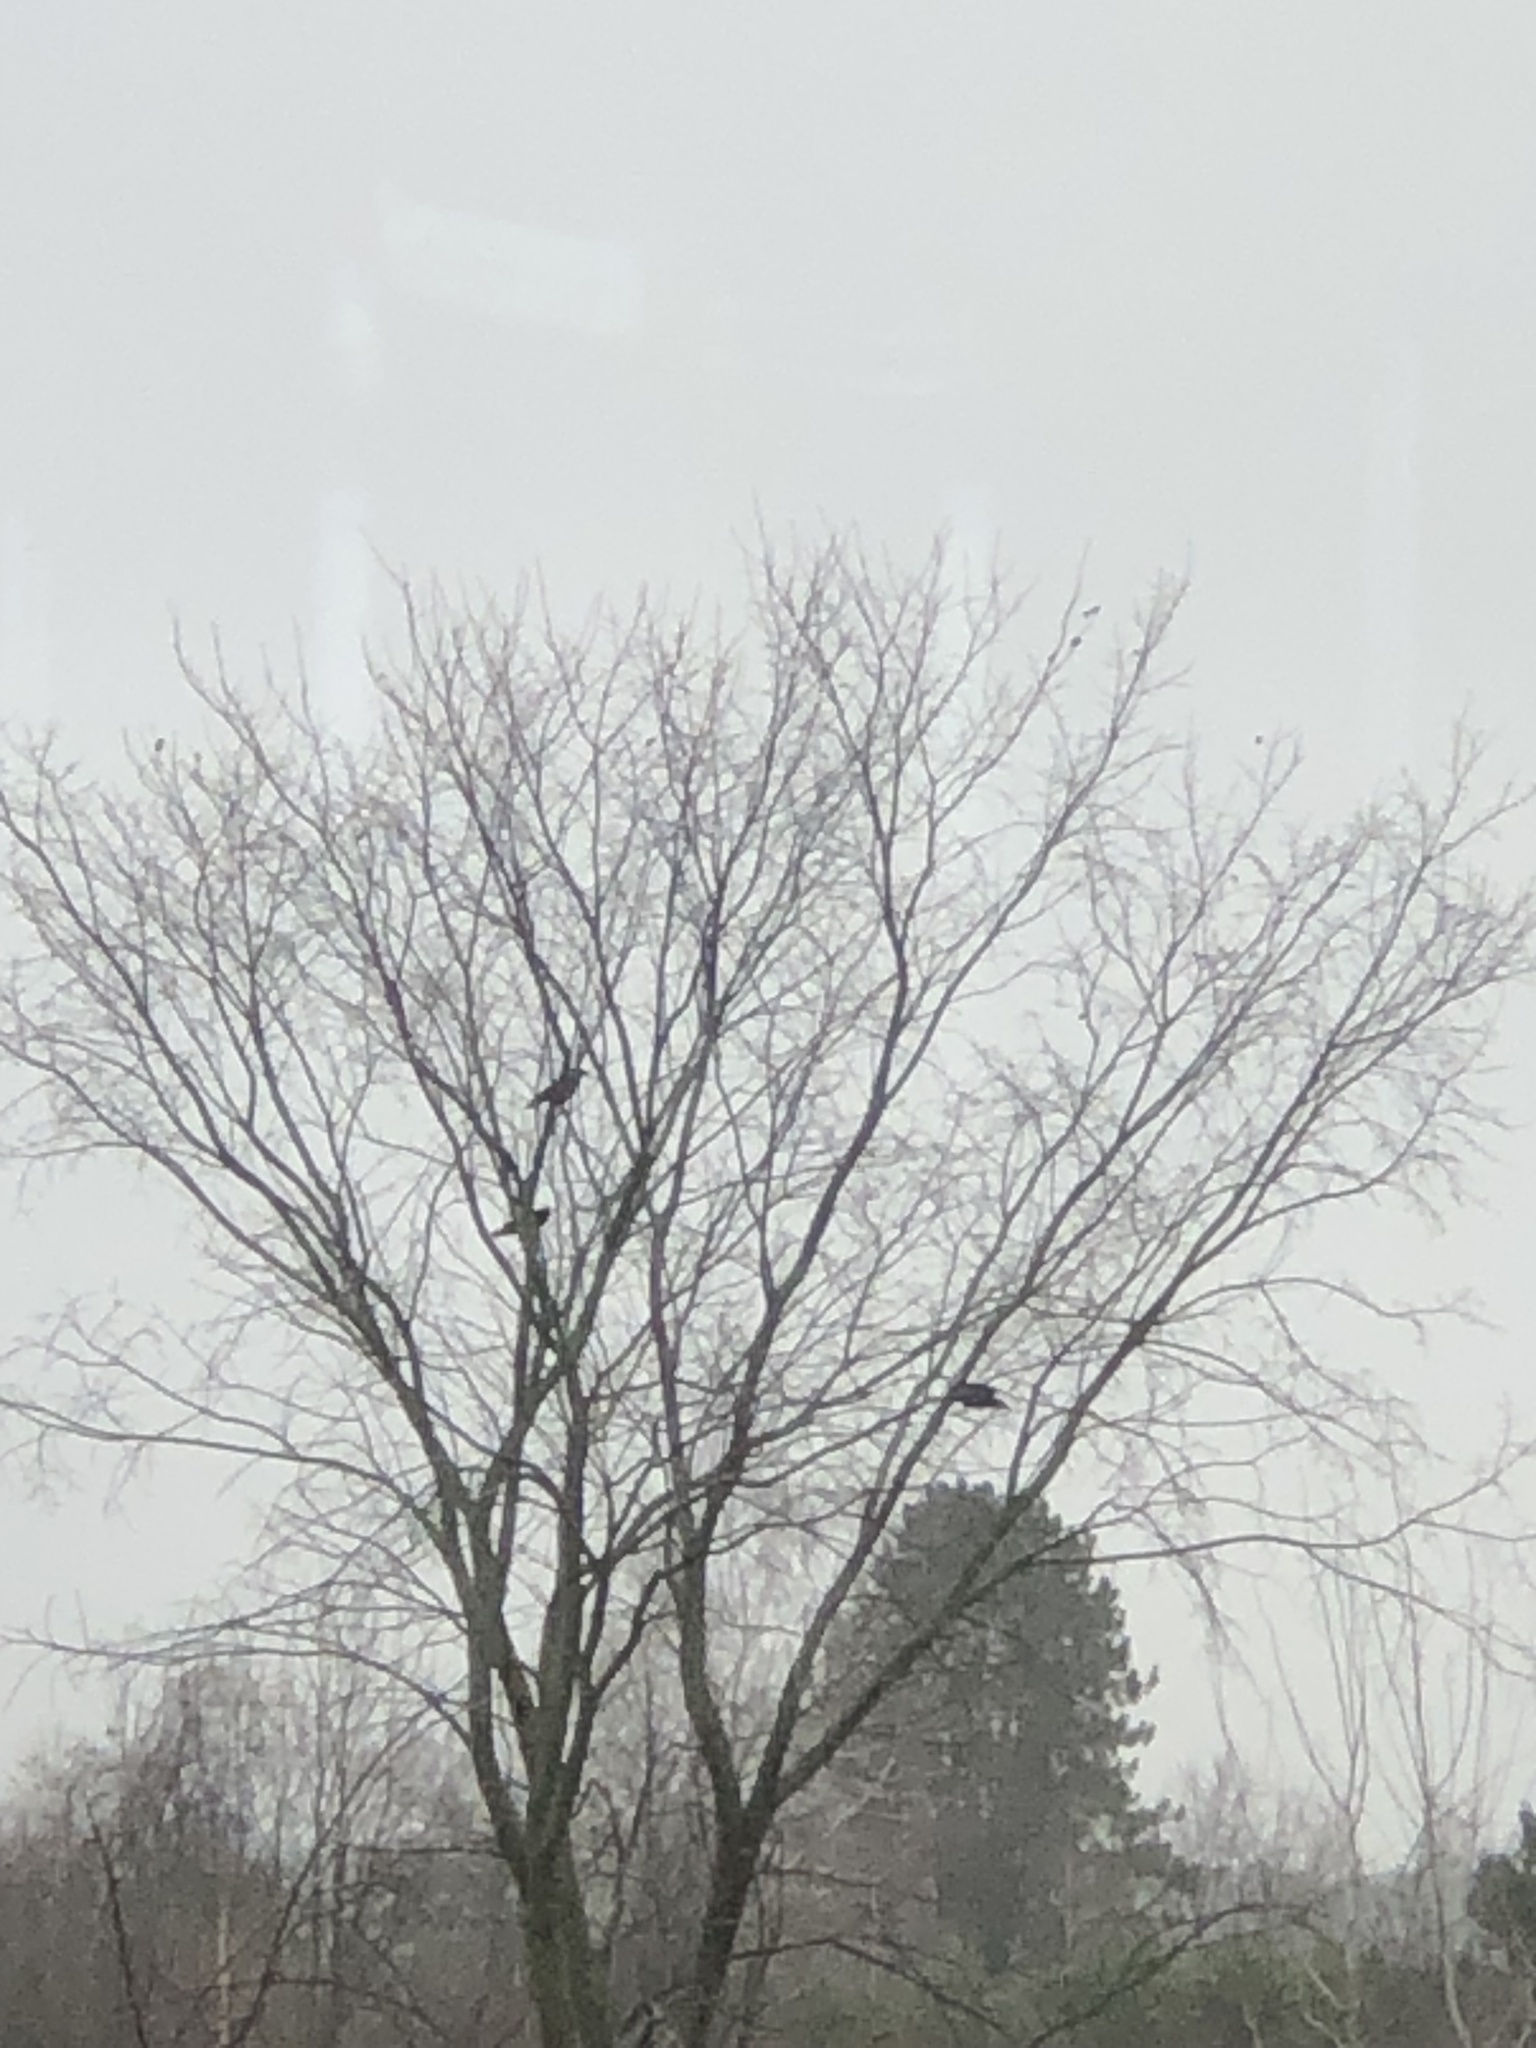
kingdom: Animalia
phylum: Chordata
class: Aves
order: Passeriformes
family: Corvidae
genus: Corvus
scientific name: Corvus brachyrhynchos
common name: American crow
